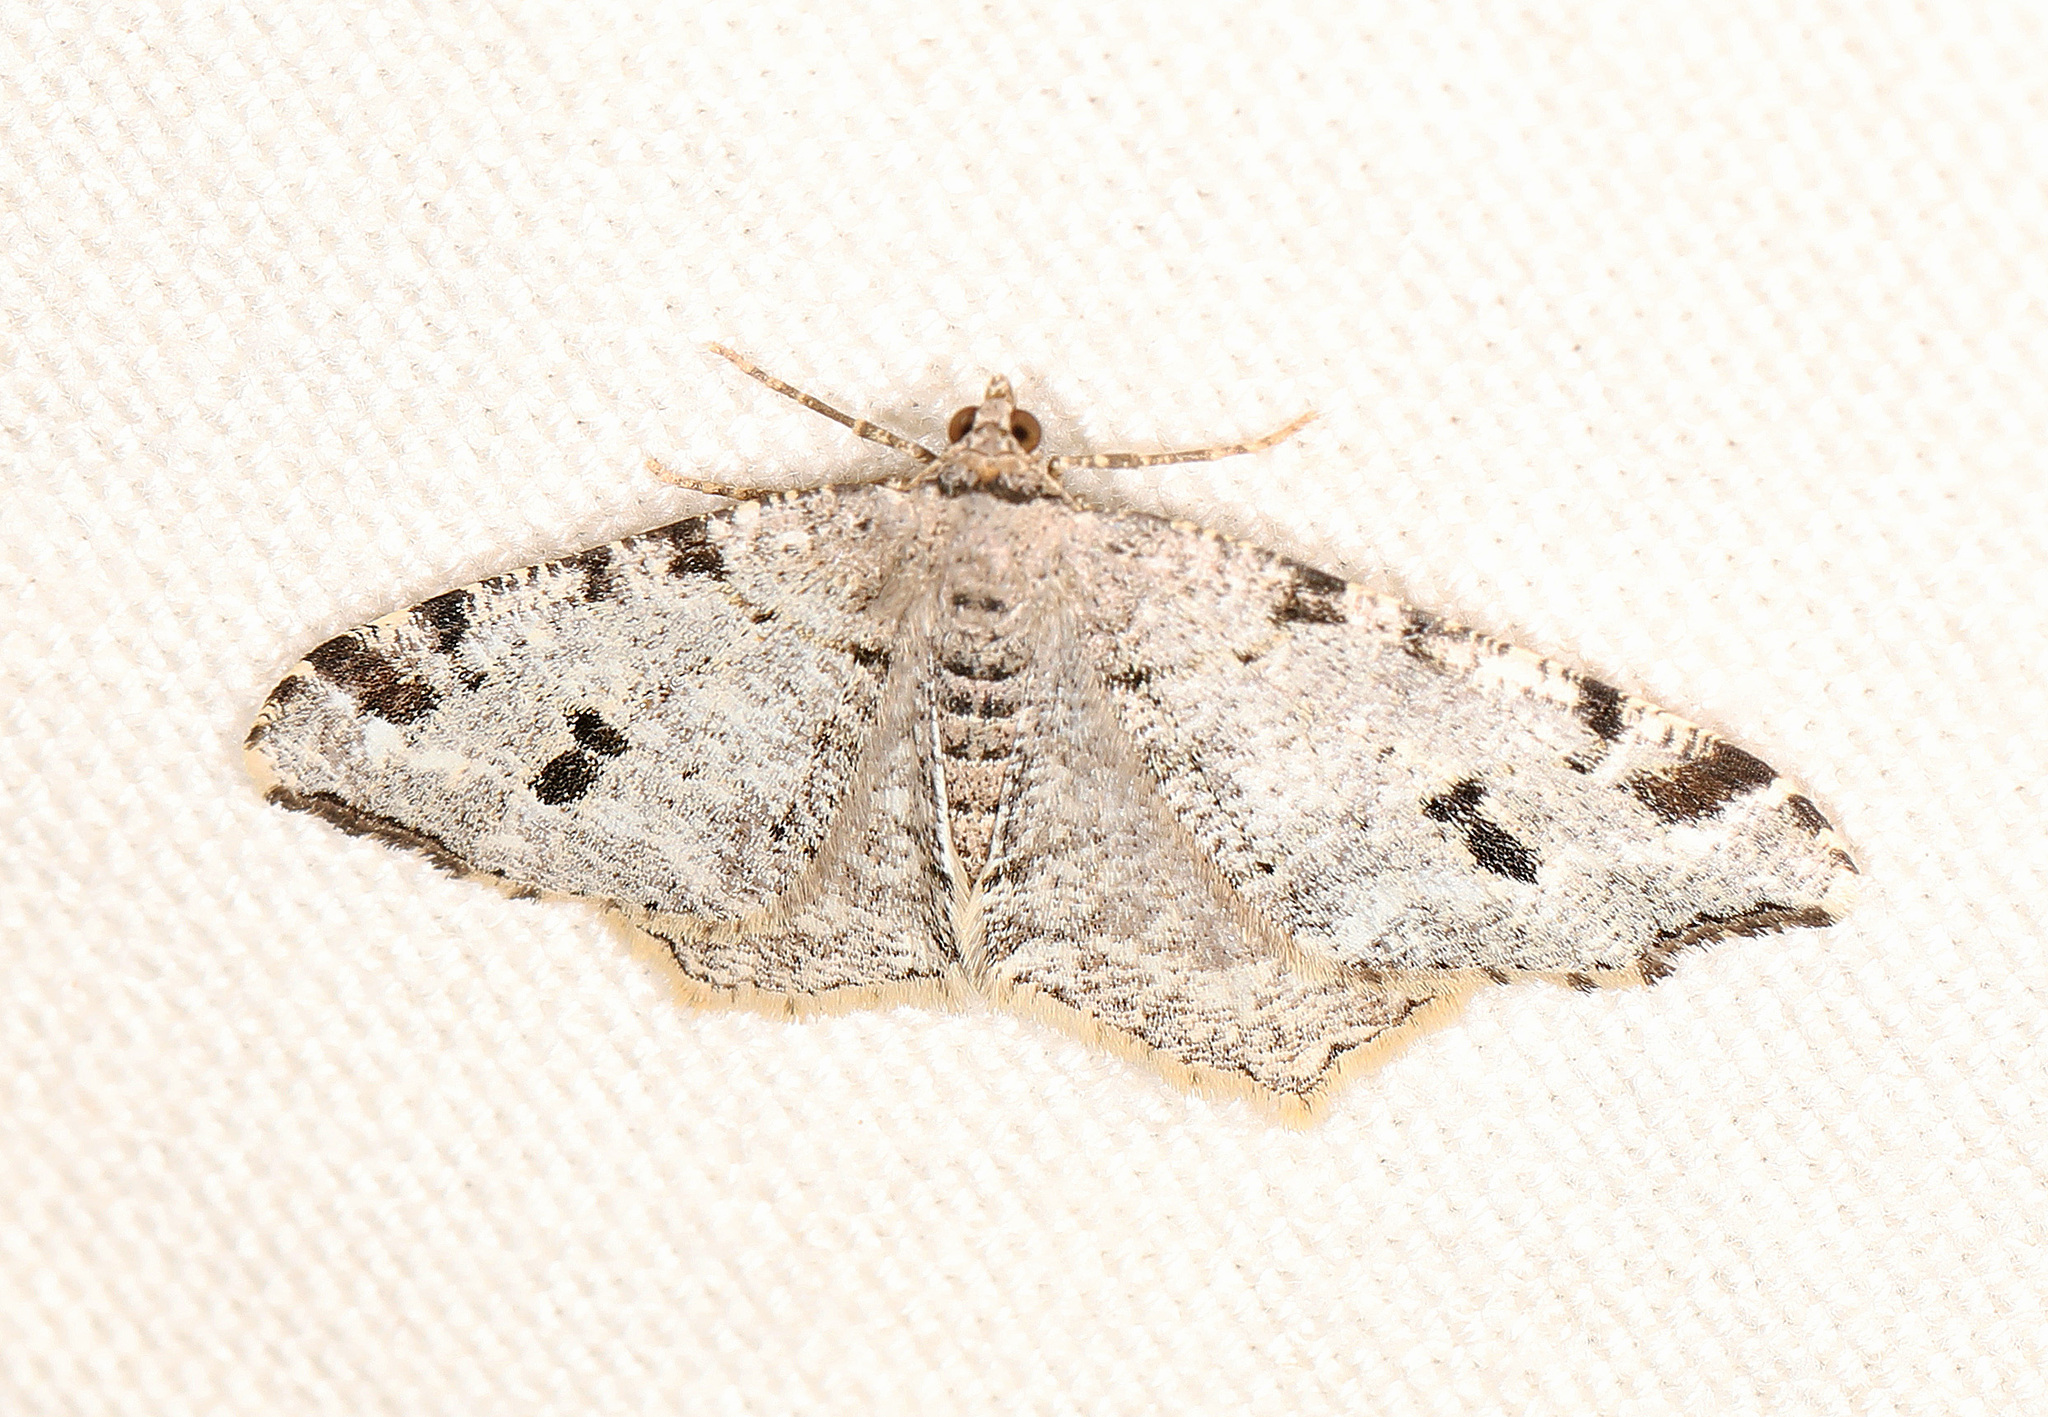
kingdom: Animalia
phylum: Arthropoda
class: Insecta
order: Lepidoptera
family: Geometridae
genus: Macaria
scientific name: Macaria fissinotata
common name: Hemlock angle
